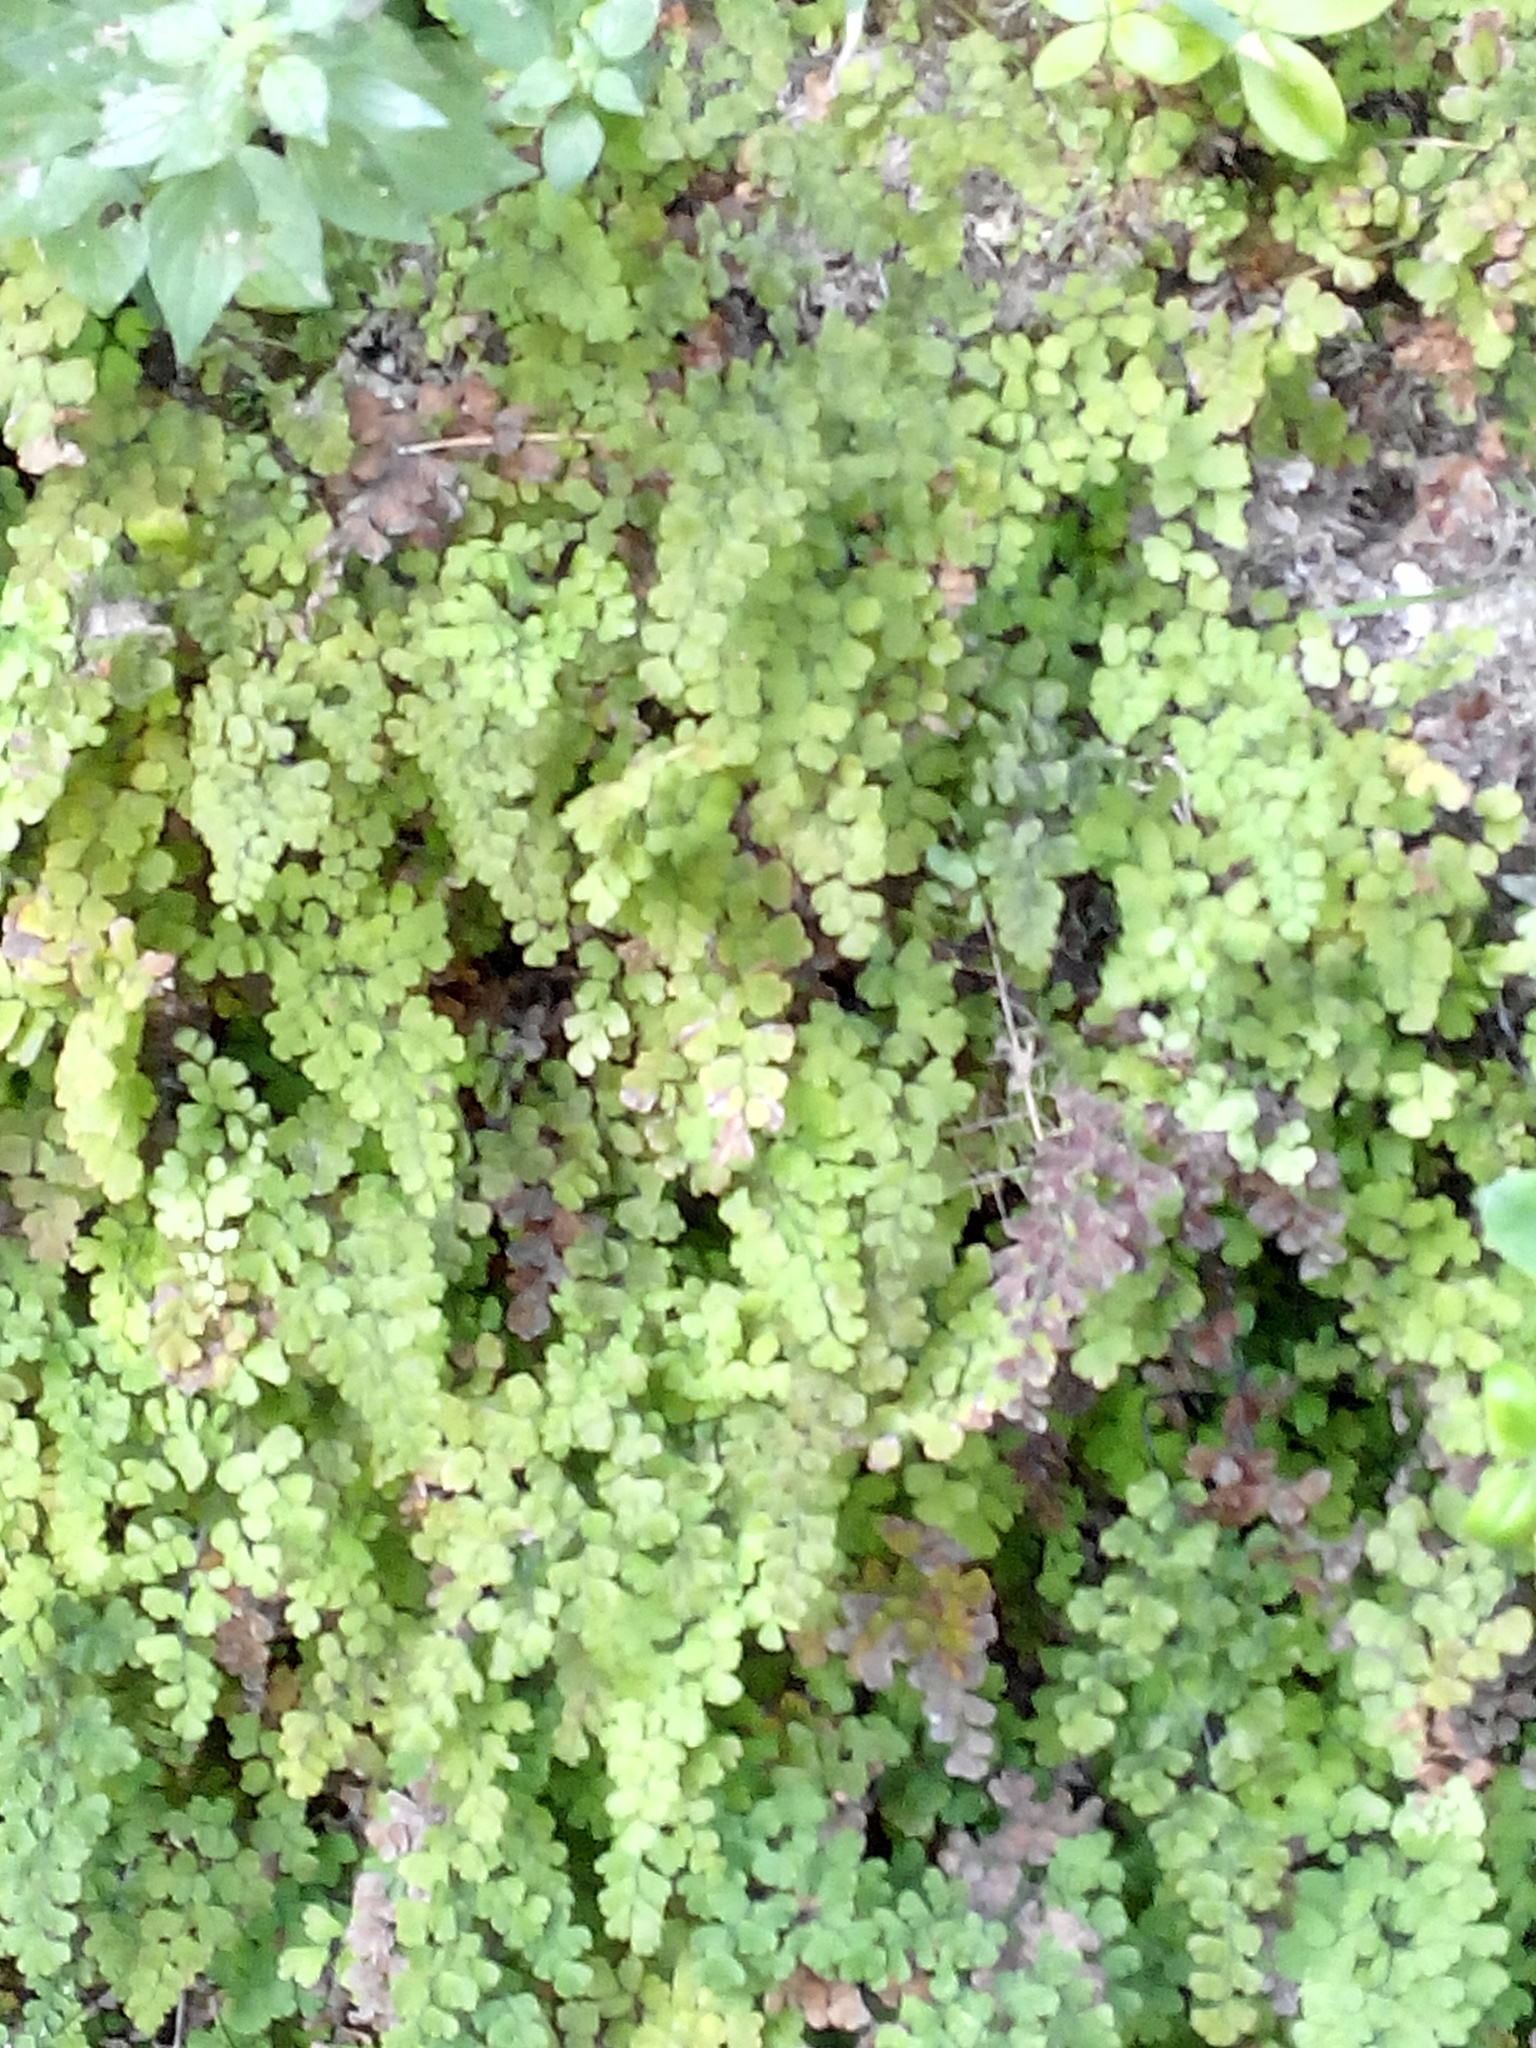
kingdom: Plantae
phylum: Tracheophyta
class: Polypodiopsida
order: Polypodiales
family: Pteridaceae
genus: Adiantum
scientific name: Adiantum capillus-veneris
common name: Maidenhair fern
